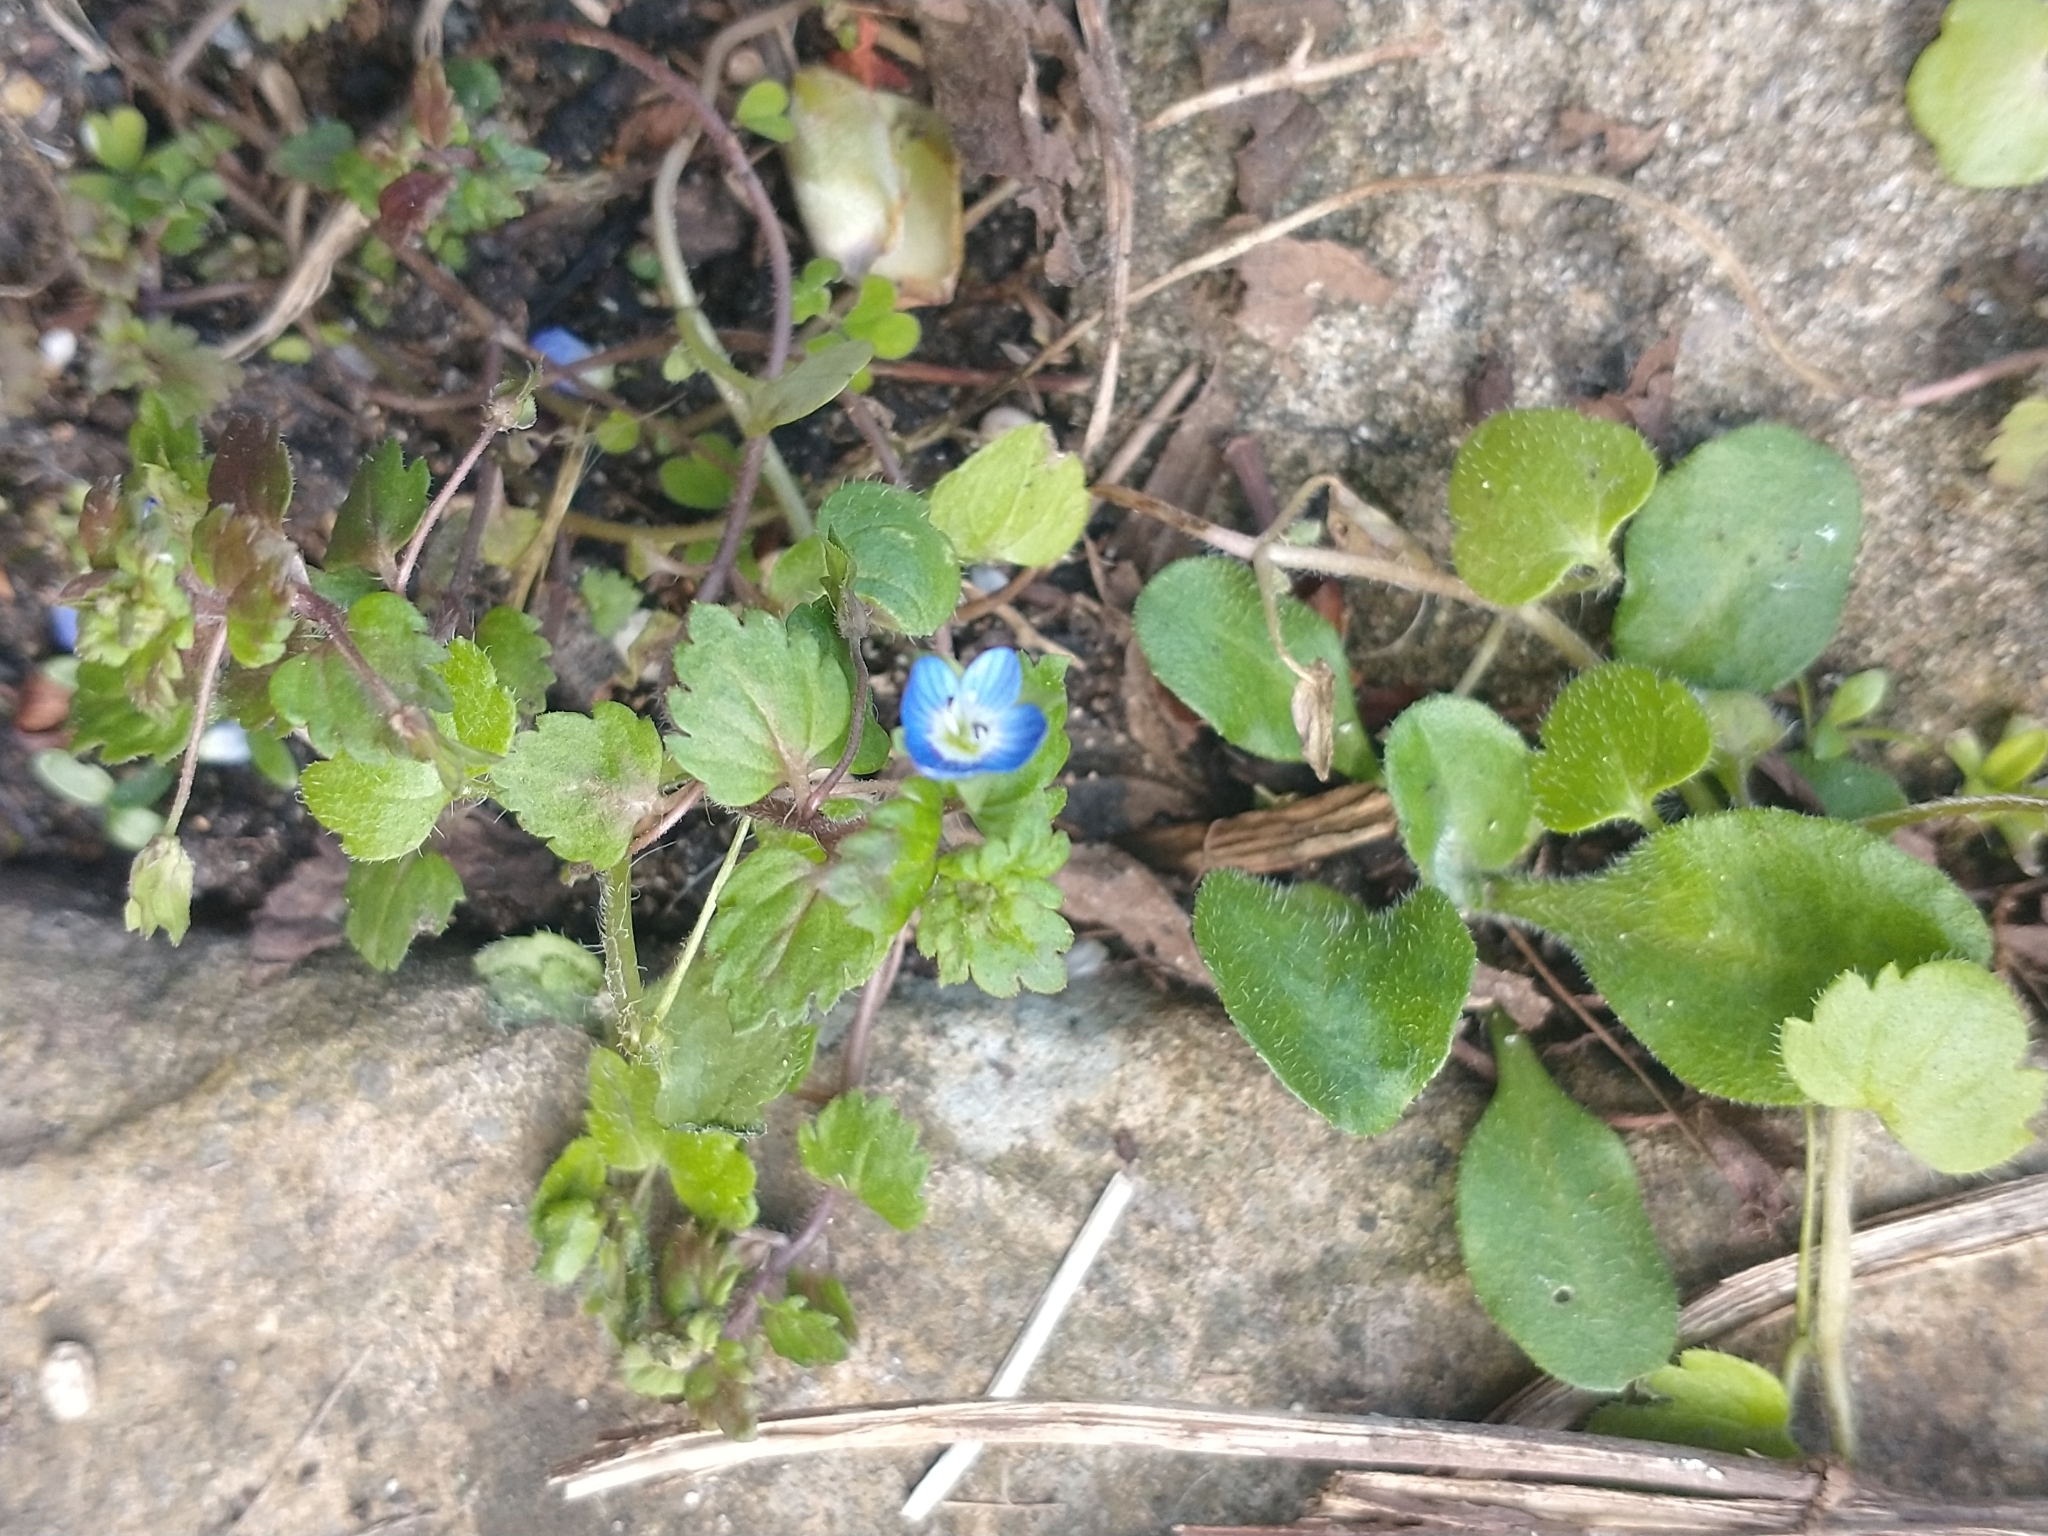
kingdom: Plantae
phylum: Tracheophyta
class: Magnoliopsida
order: Lamiales
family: Plantaginaceae
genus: Veronica
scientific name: Veronica polita
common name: Grey field-speedwell
